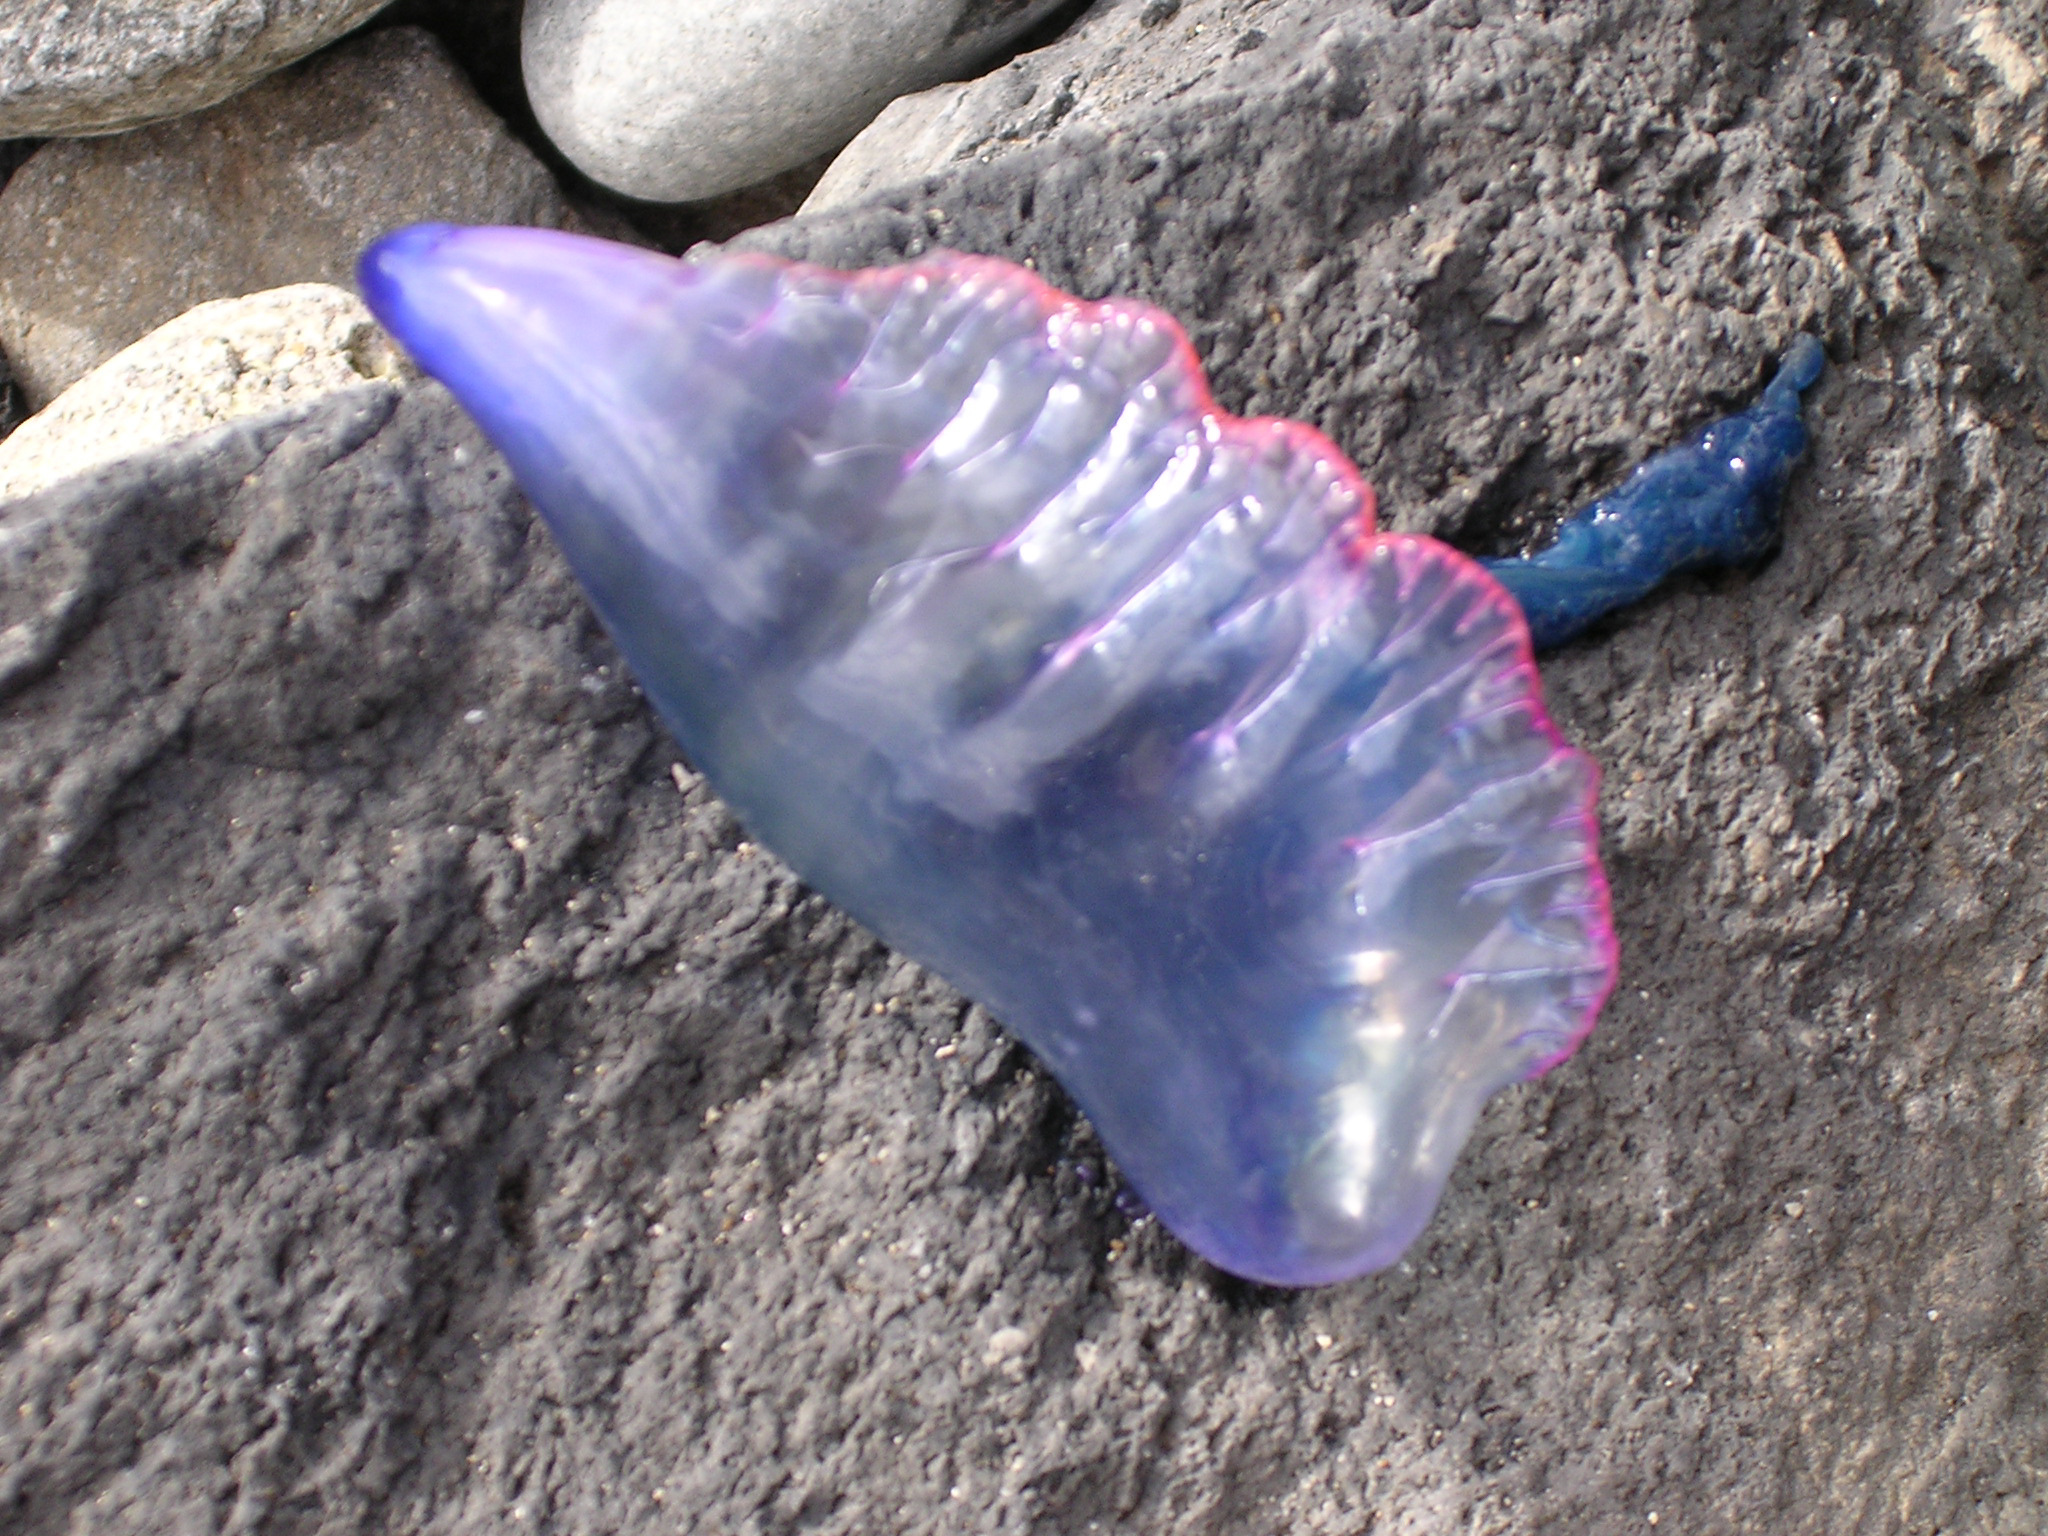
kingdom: Animalia
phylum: Cnidaria
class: Hydrozoa
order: Siphonophorae
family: Physaliidae
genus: Physalia
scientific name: Physalia physalis
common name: Portuguese man-of-war
